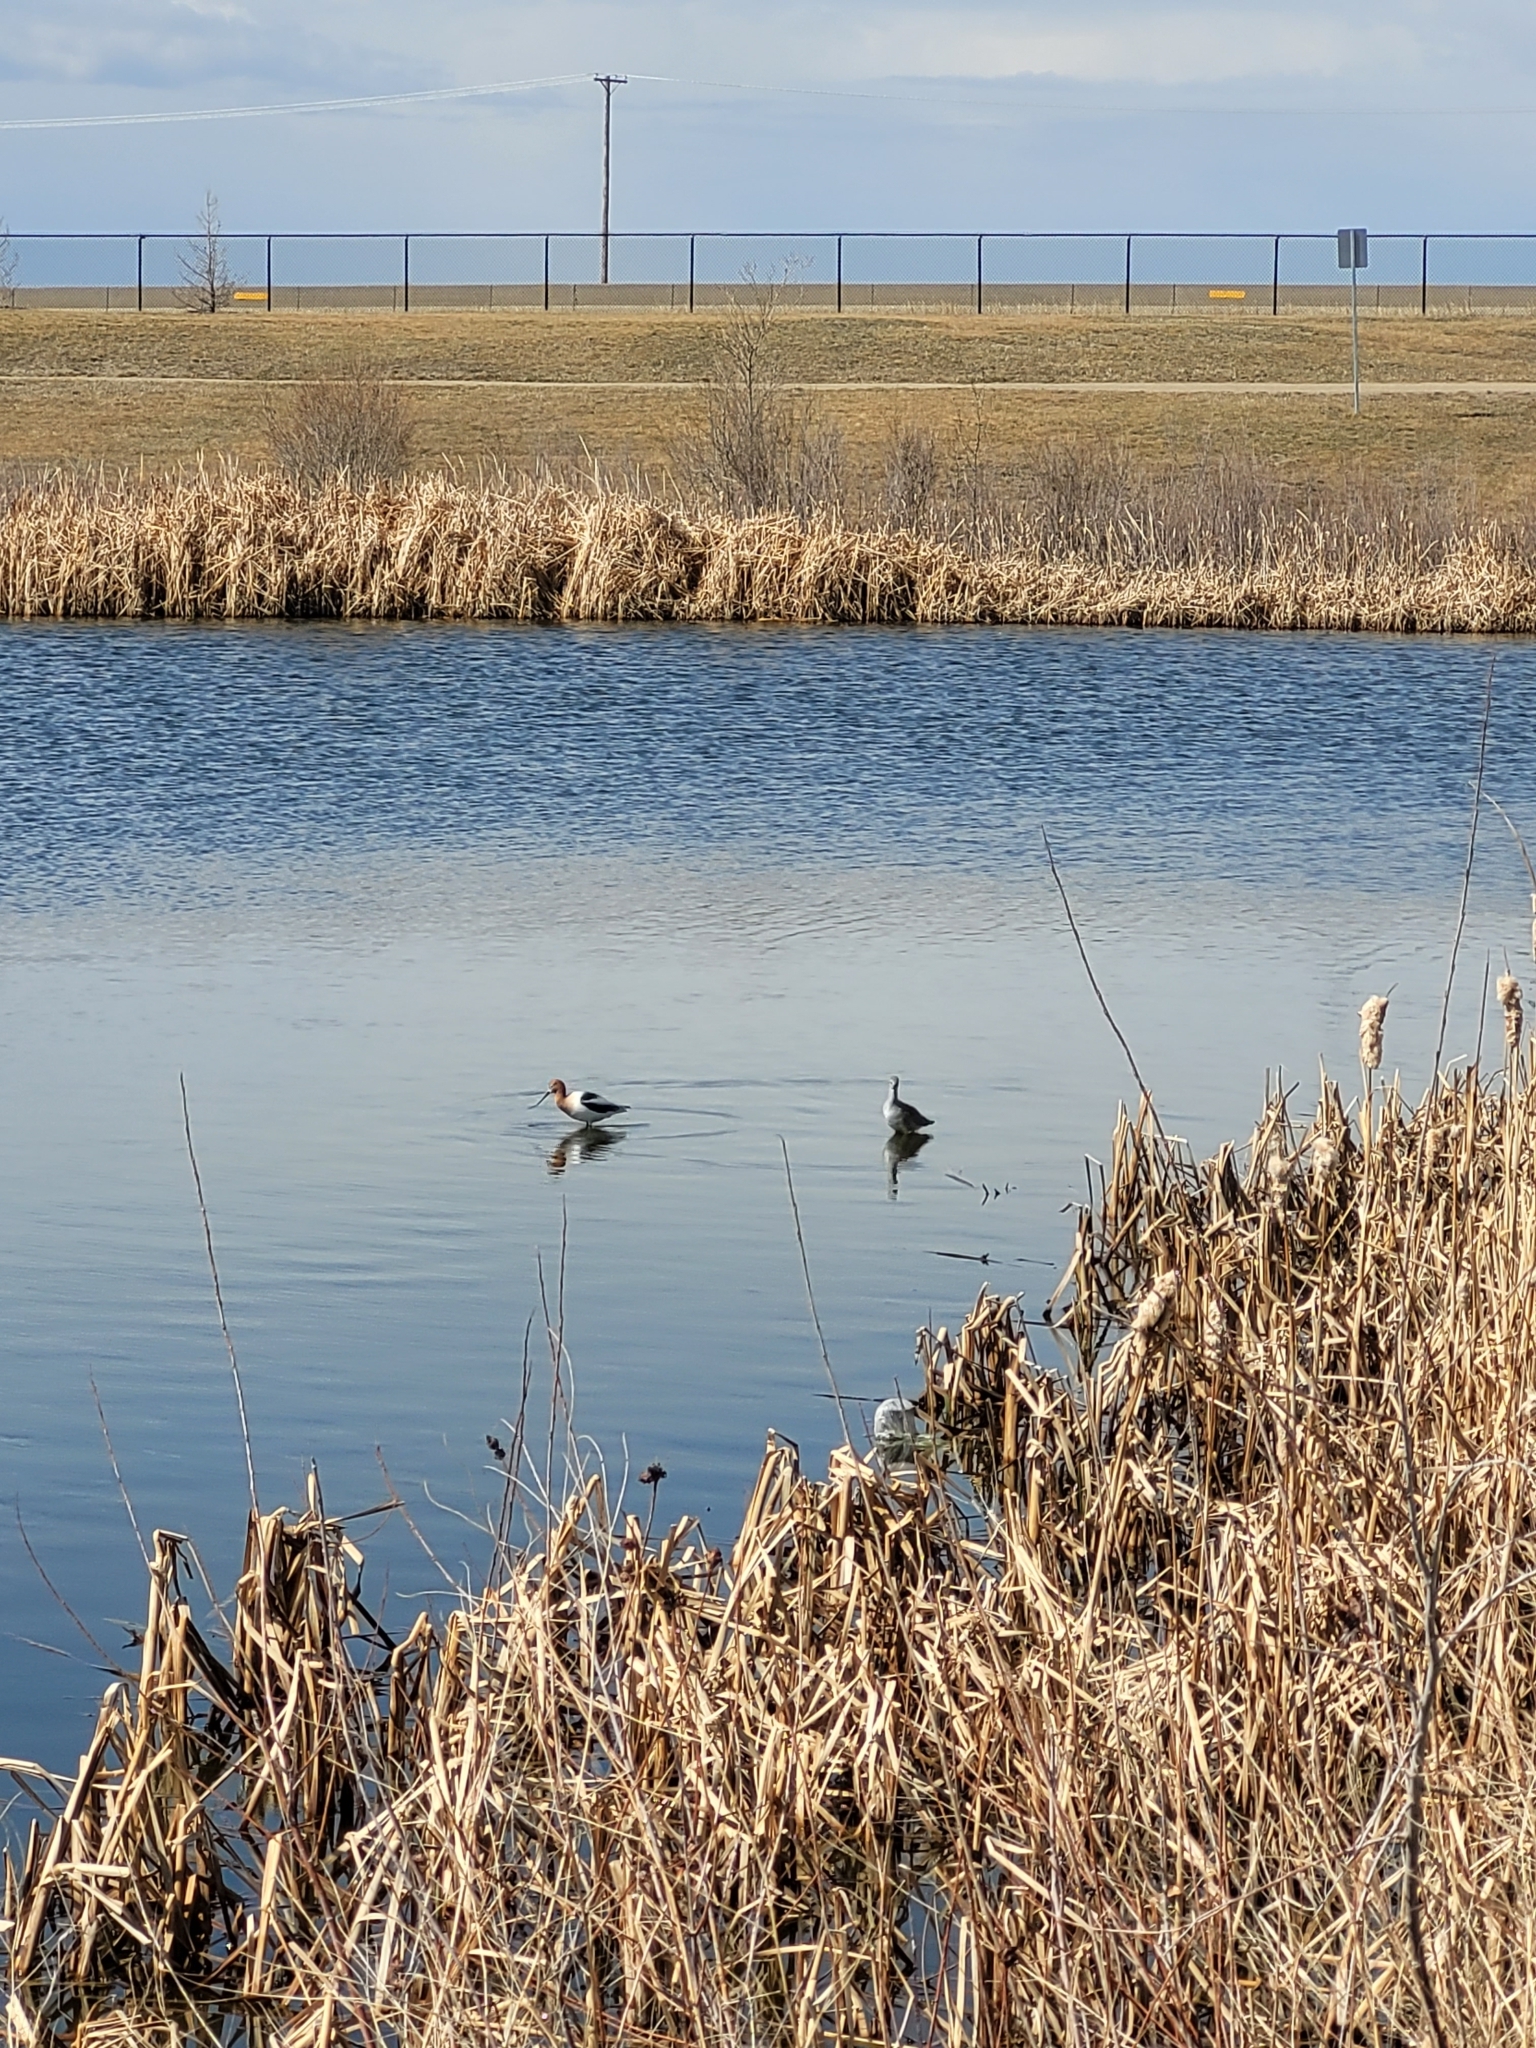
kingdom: Animalia
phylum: Chordata
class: Aves
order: Charadriiformes
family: Recurvirostridae
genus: Recurvirostra
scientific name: Recurvirostra americana
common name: American avocet
